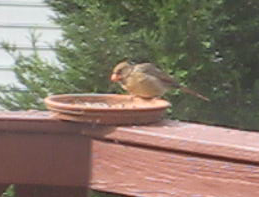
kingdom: Animalia
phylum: Chordata
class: Aves
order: Passeriformes
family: Cardinalidae
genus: Cardinalis
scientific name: Cardinalis cardinalis
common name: Northern cardinal
